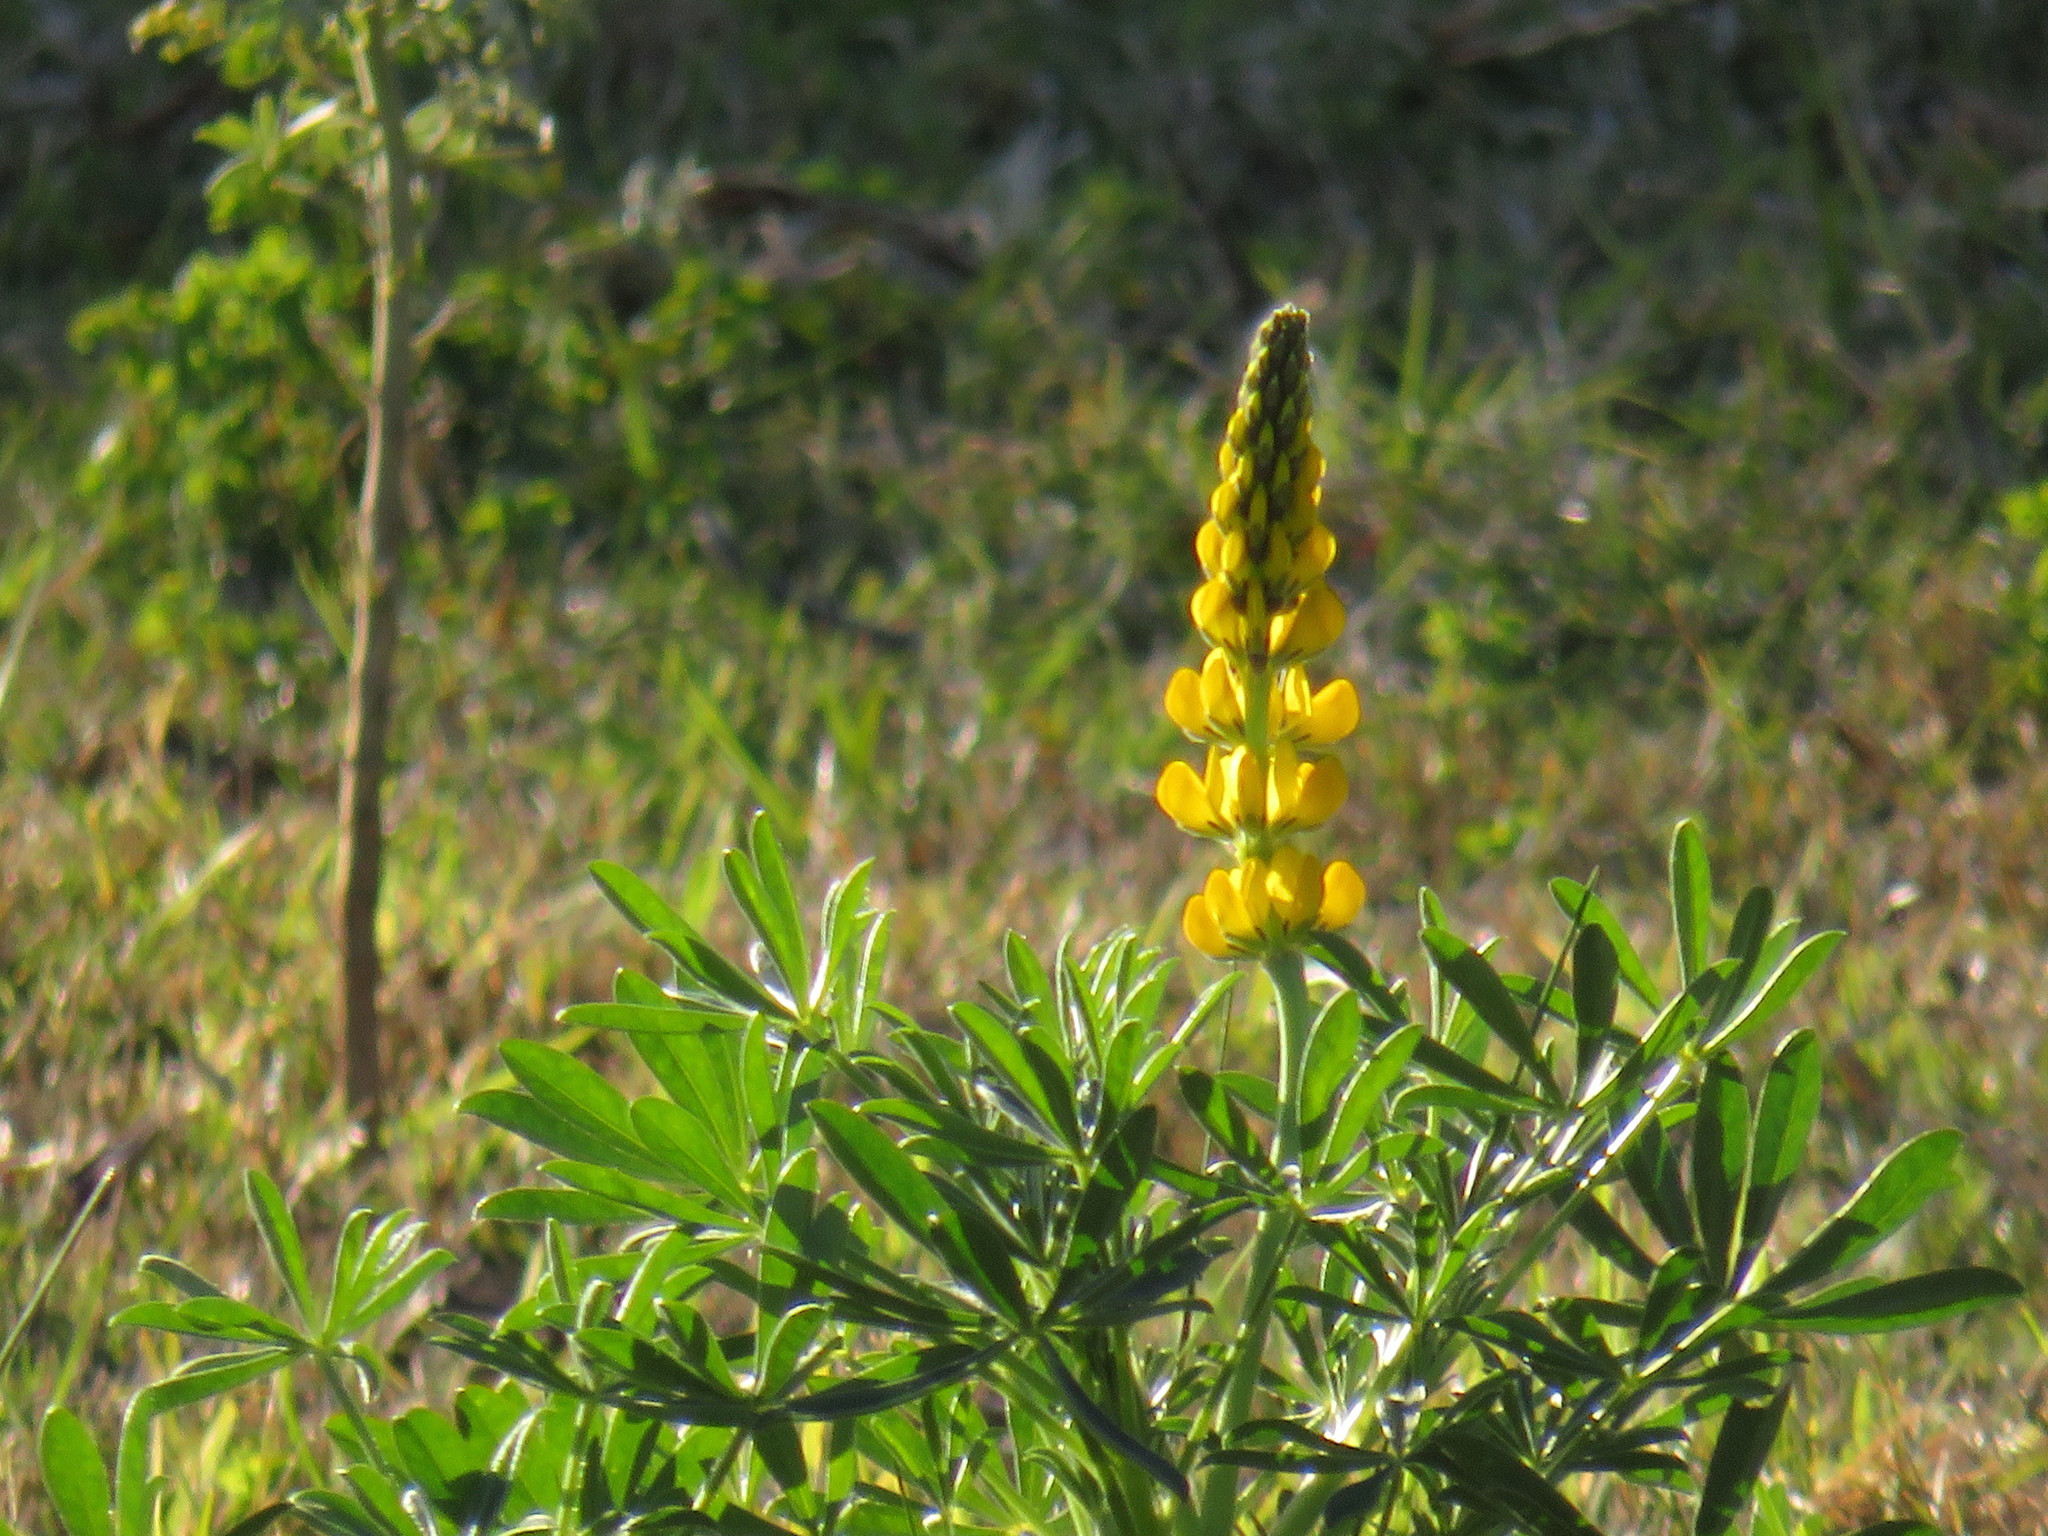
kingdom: Plantae
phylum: Tracheophyta
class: Magnoliopsida
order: Fabales
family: Fabaceae
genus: Lupinus
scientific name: Lupinus luteus
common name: European yellow lupine
